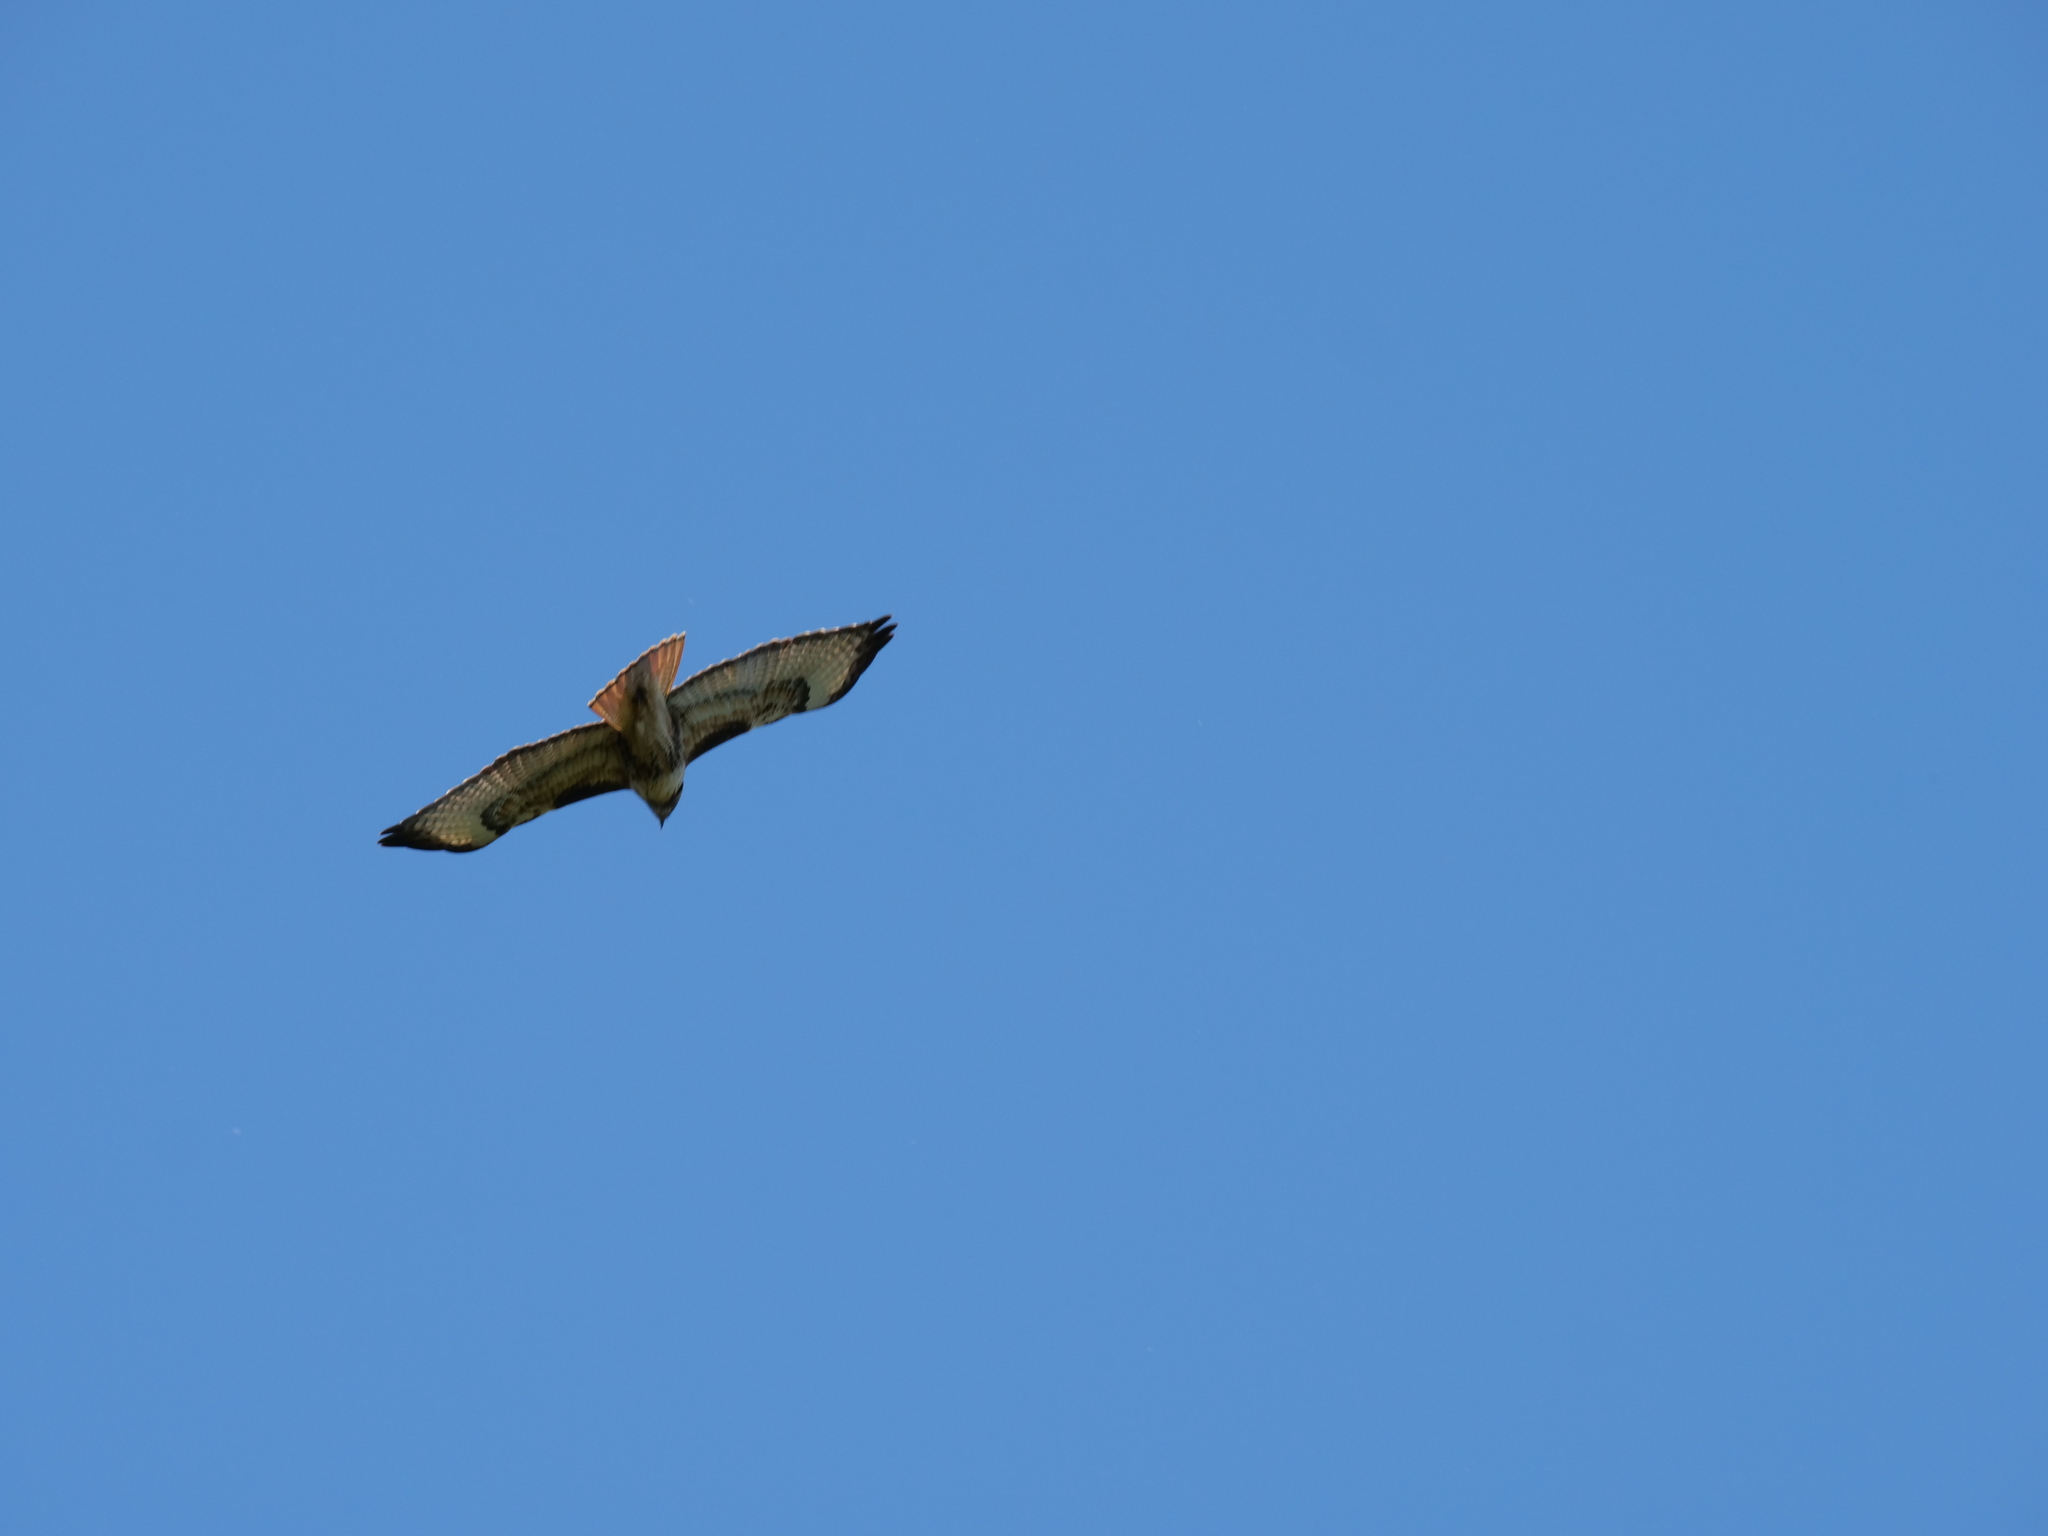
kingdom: Animalia
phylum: Chordata
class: Aves
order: Accipitriformes
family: Accipitridae
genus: Buteo
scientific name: Buteo jamaicensis
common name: Red-tailed hawk
